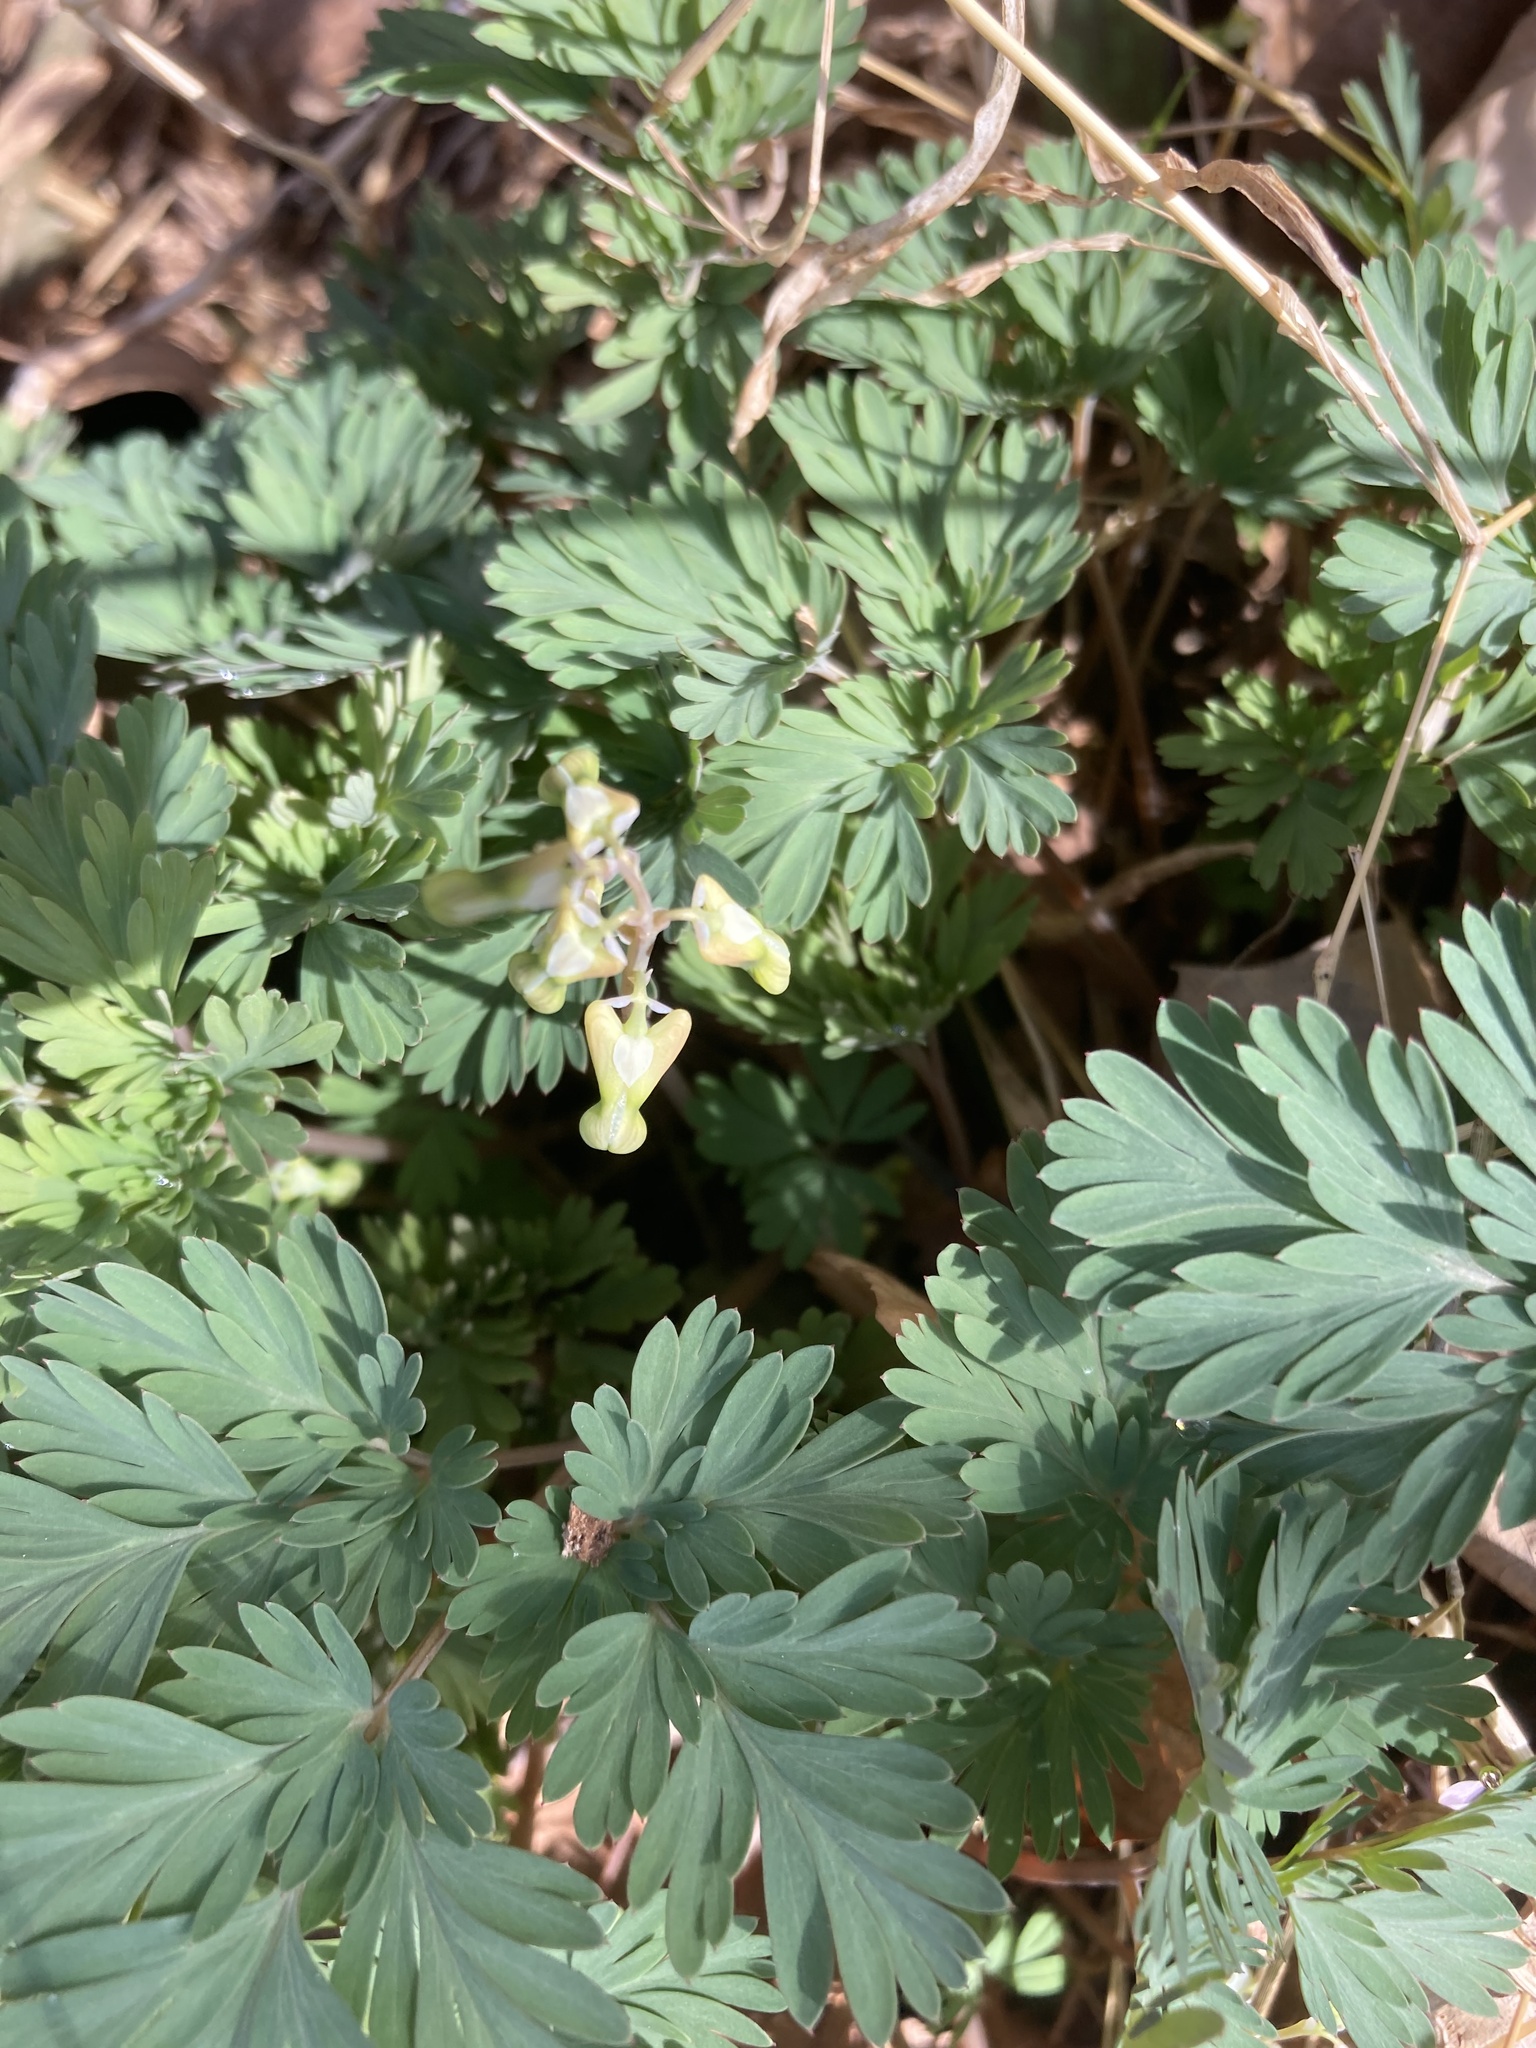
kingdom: Plantae
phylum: Tracheophyta
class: Magnoliopsida
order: Ranunculales
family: Papaveraceae
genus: Dicentra
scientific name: Dicentra cucullaria
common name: Dutchman's breeches
